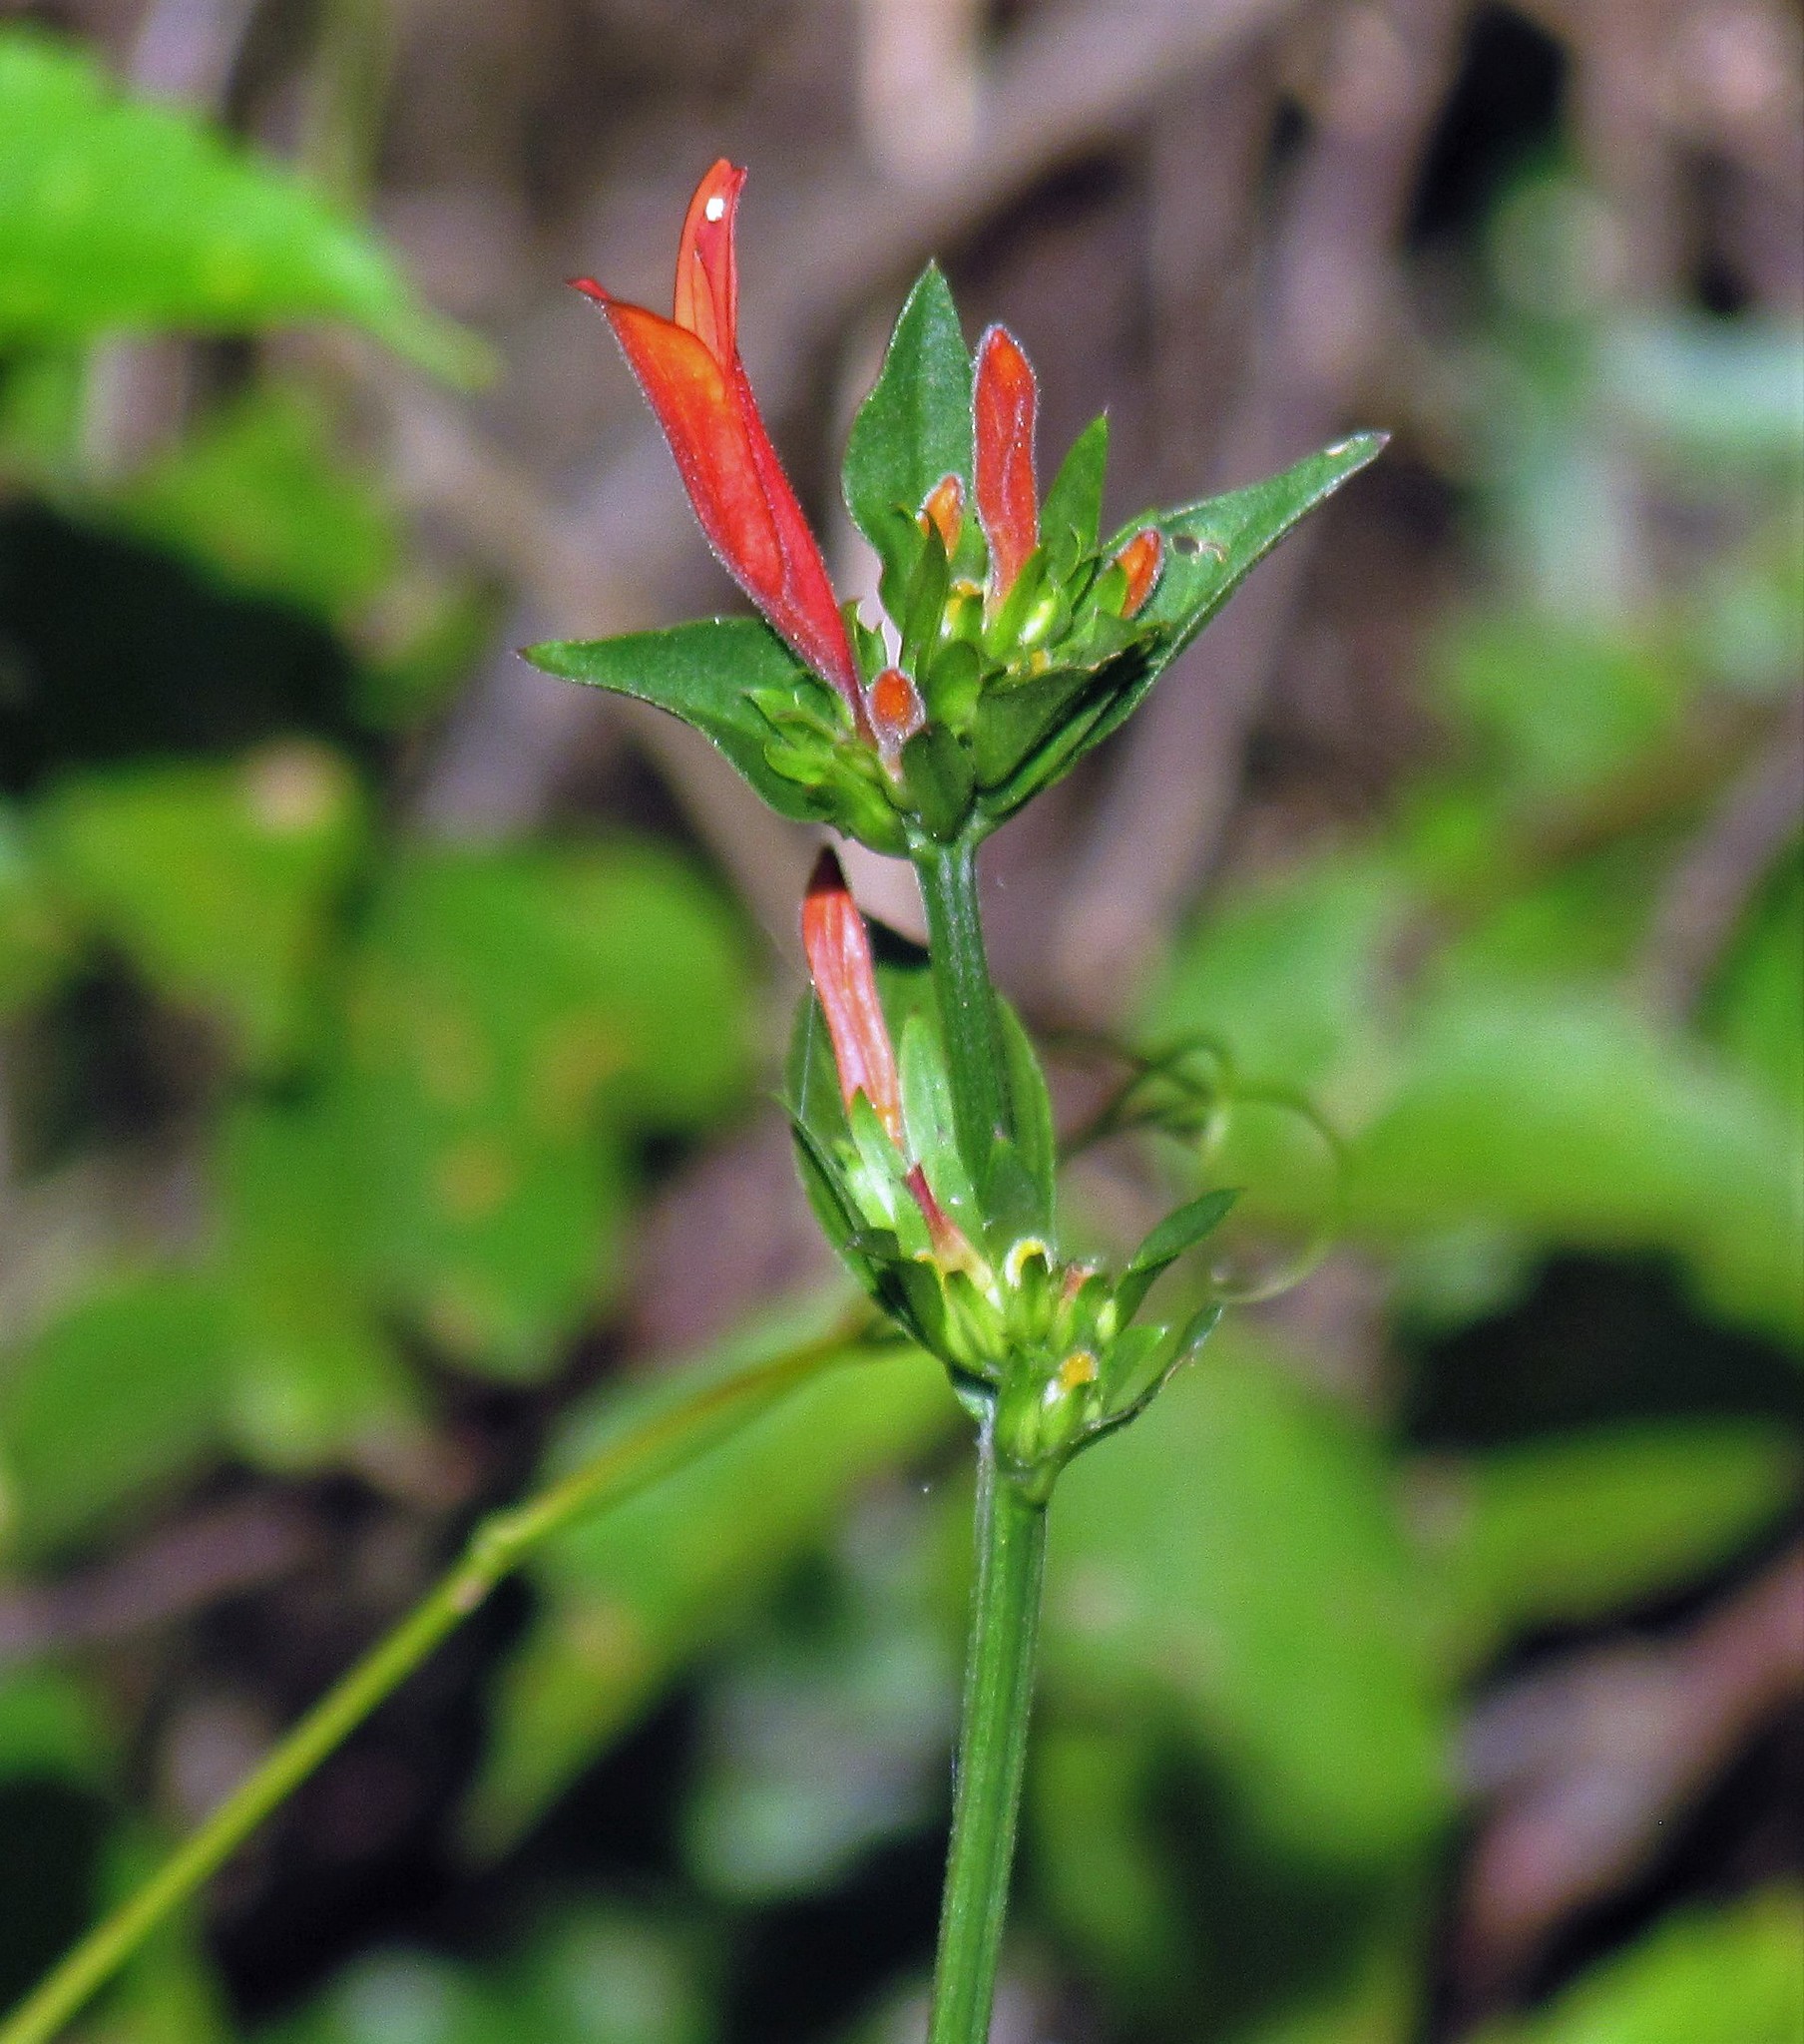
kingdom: Plantae
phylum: Tracheophyta
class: Magnoliopsida
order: Lamiales
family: Acanthaceae
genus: Dicliptera
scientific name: Dicliptera squarrosa
